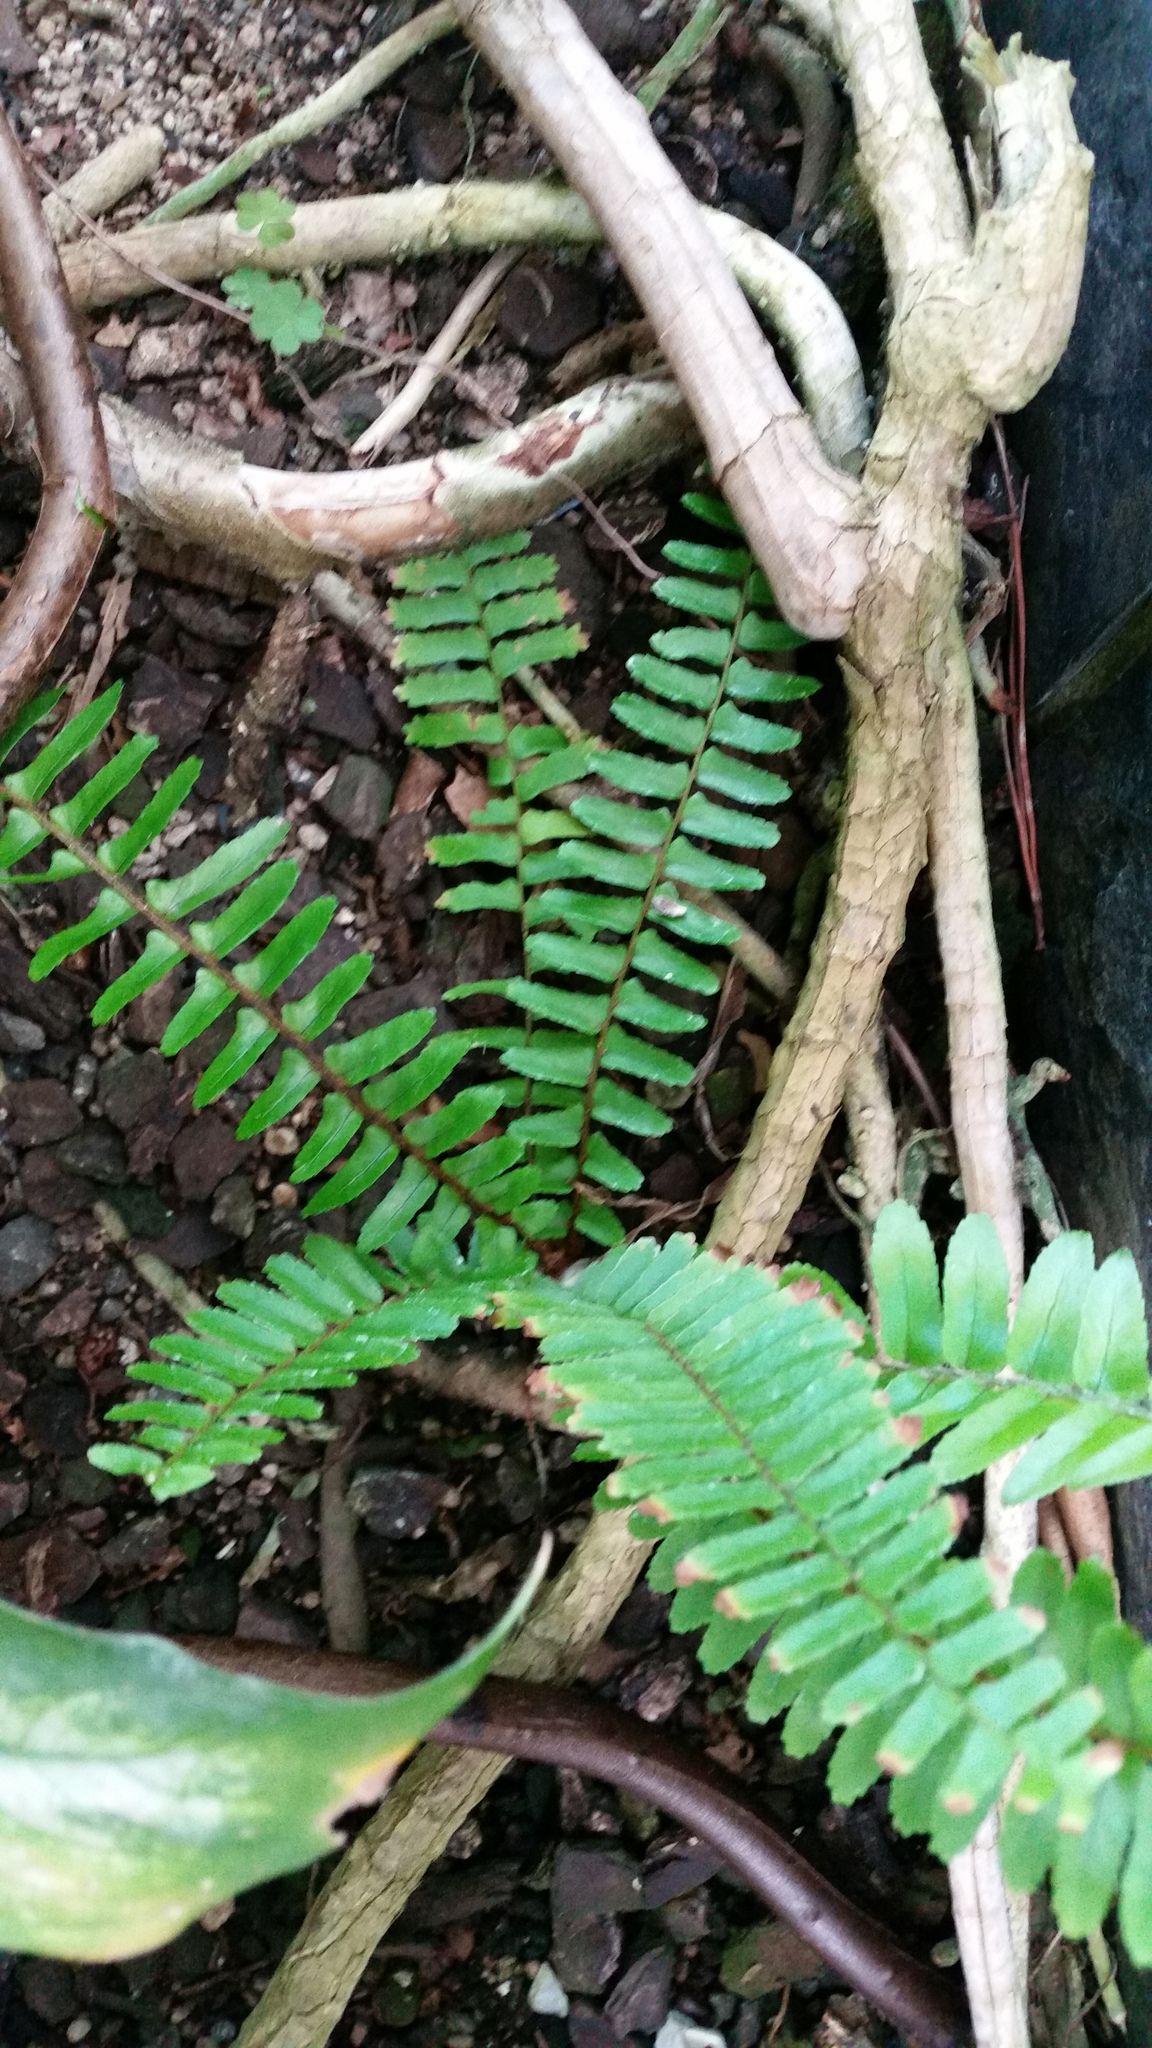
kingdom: Plantae
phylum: Tracheophyta
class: Polypodiopsida
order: Polypodiales
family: Nephrolepidaceae
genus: Nephrolepis
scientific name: Nephrolepis cordifolia
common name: Narrow swordfern
